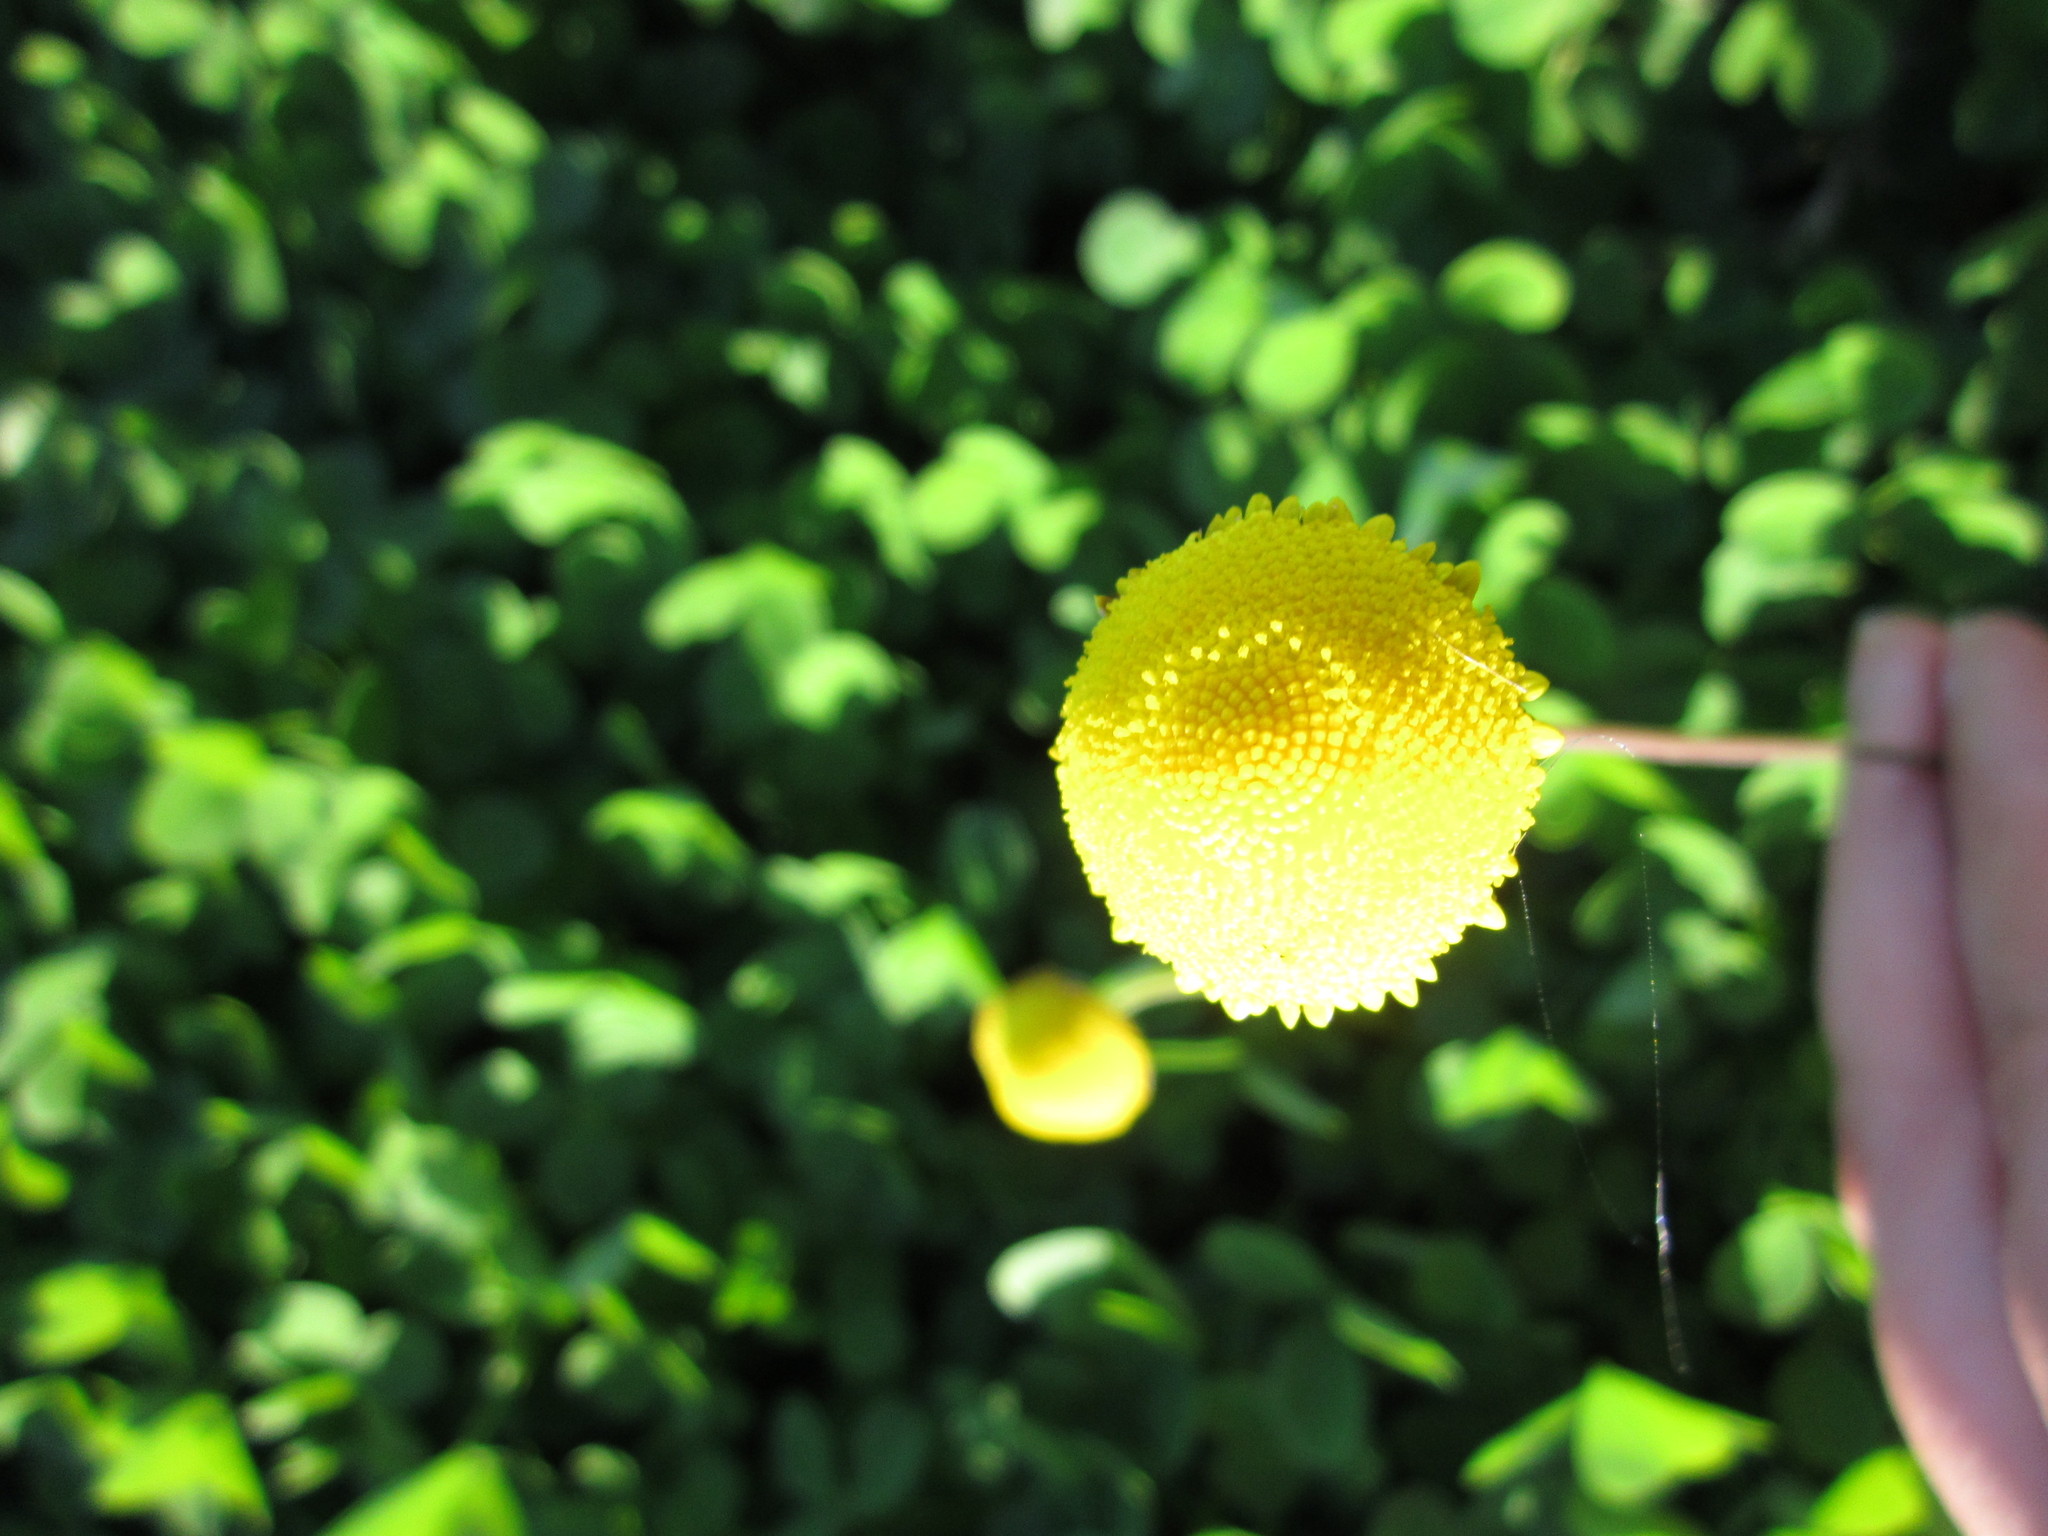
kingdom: Plantae
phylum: Tracheophyta
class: Magnoliopsida
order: Asterales
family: Asteraceae
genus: Cotula
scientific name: Cotula discolor
